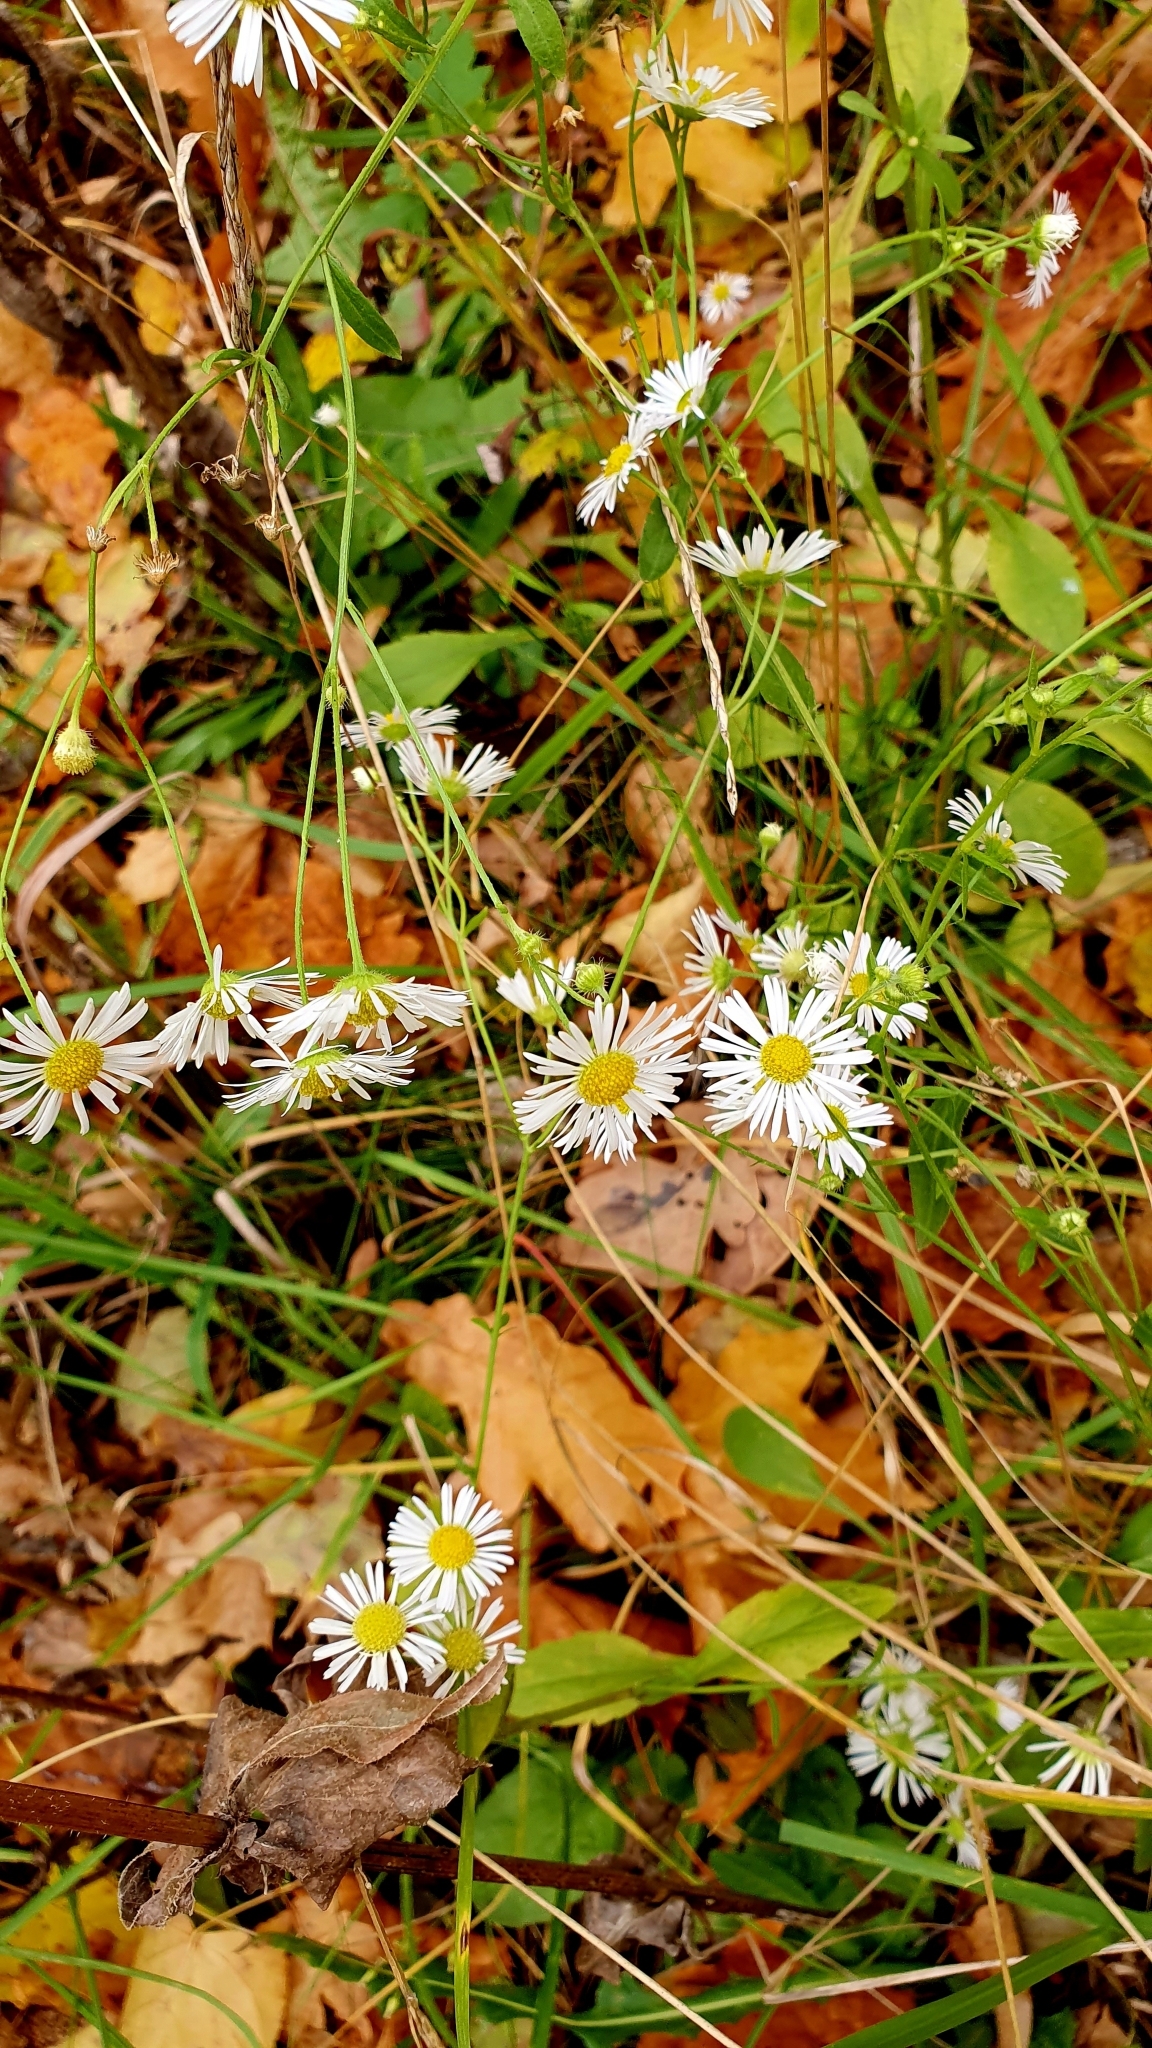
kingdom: Plantae
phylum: Tracheophyta
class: Magnoliopsida
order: Asterales
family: Asteraceae
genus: Erigeron
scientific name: Erigeron annuus
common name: Tall fleabane
